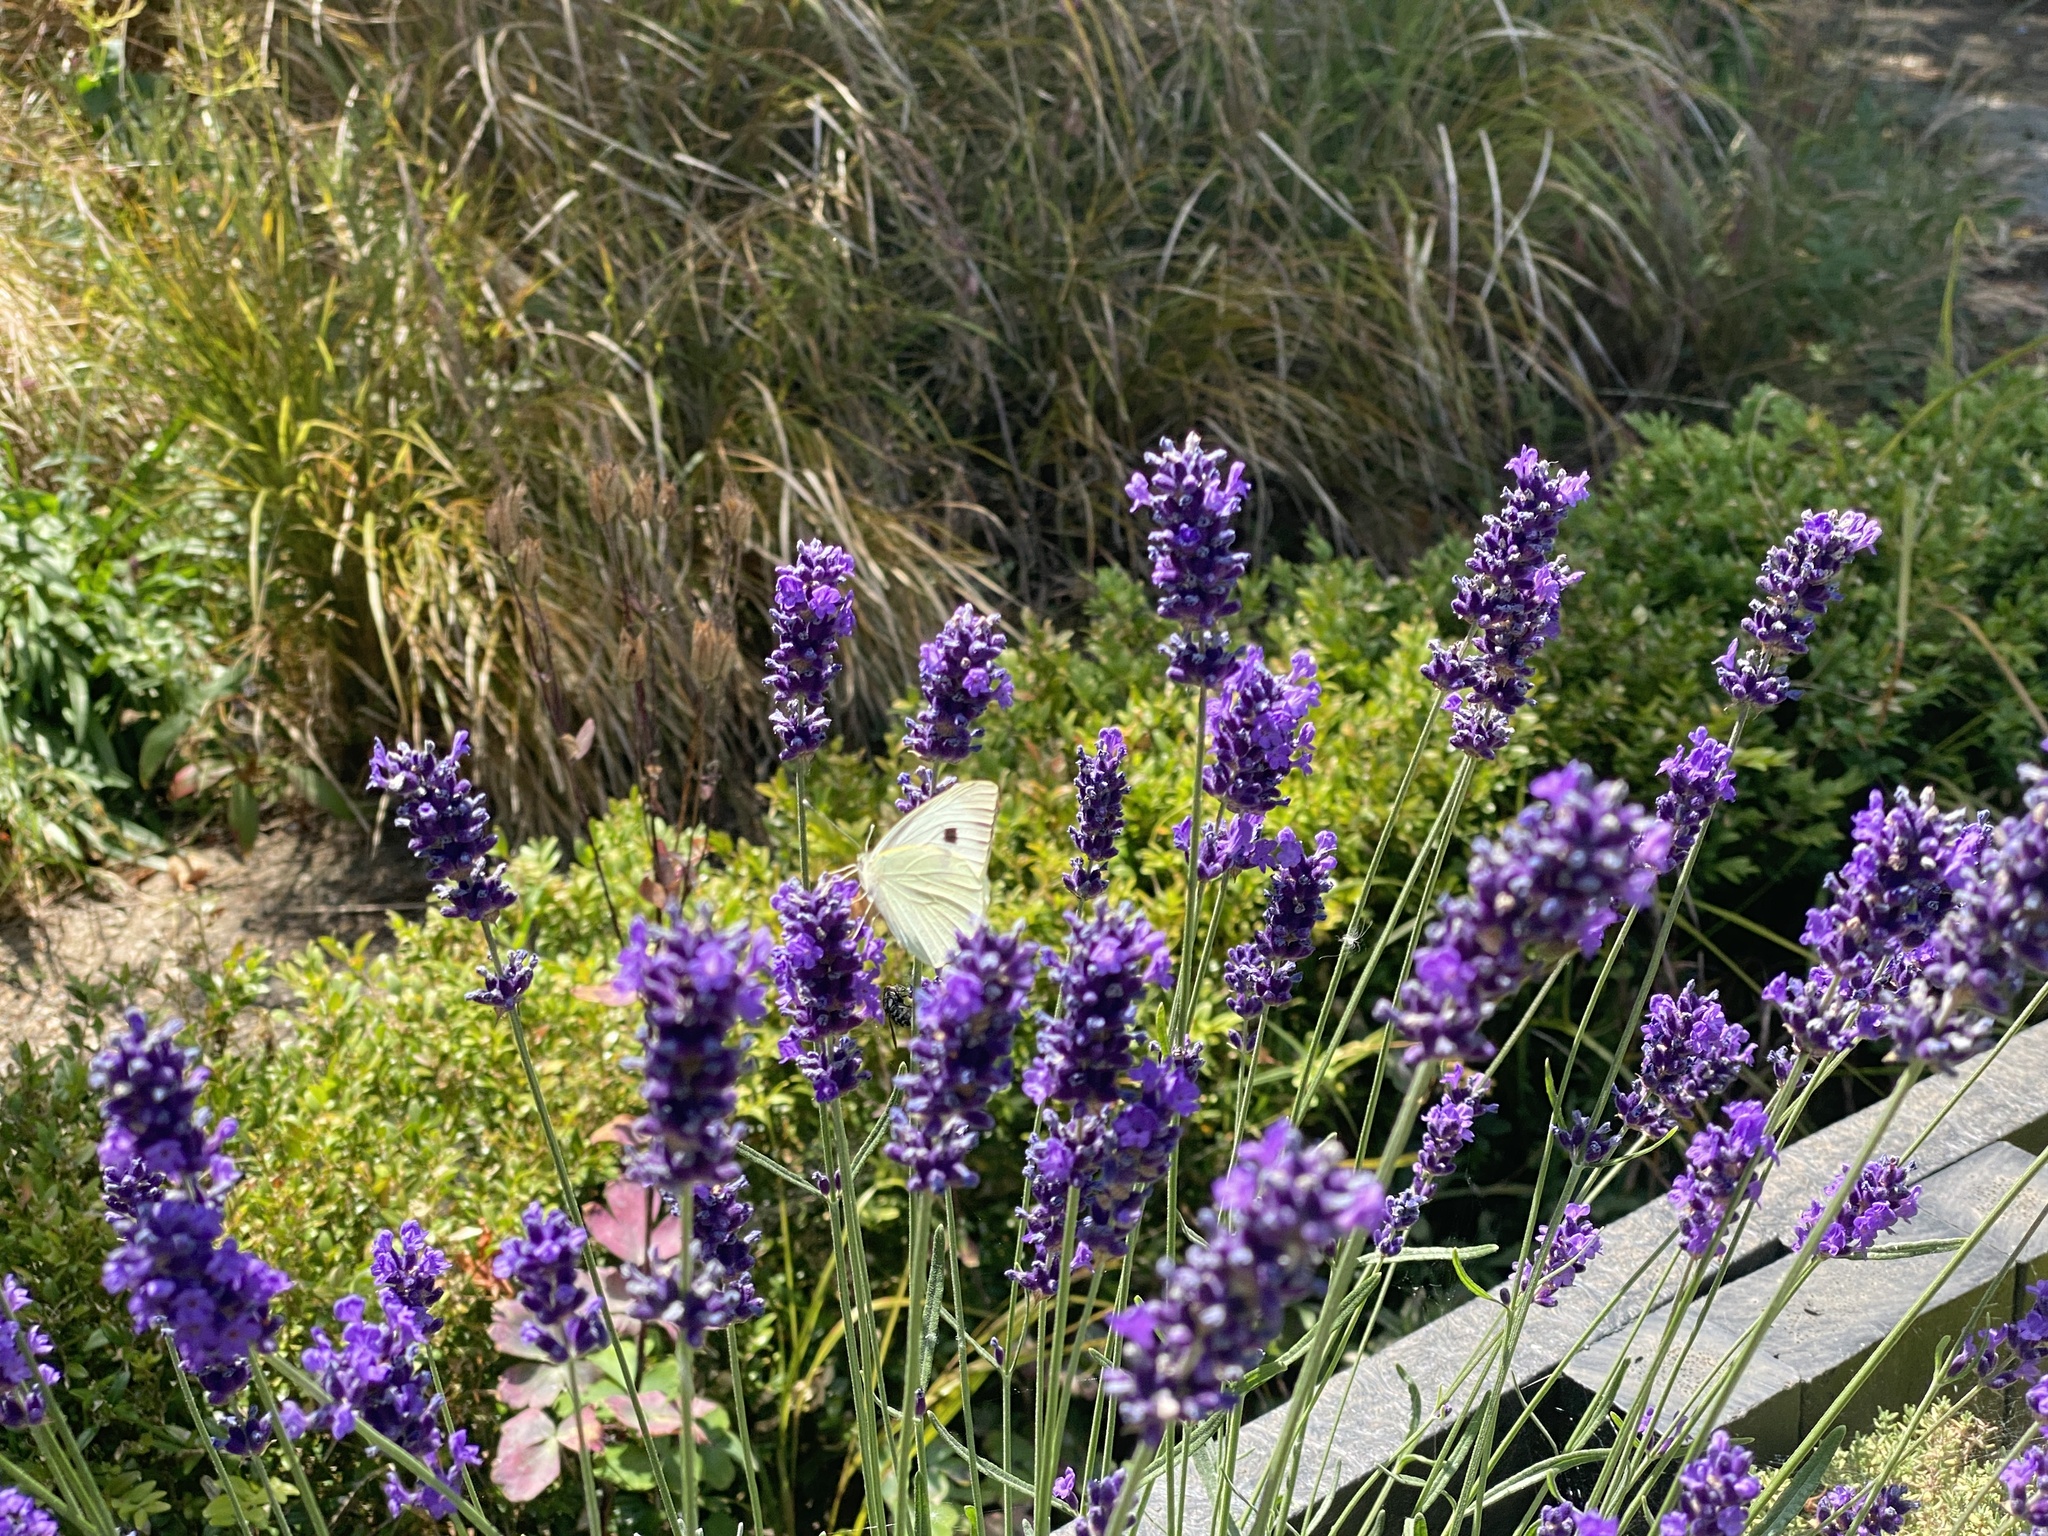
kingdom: Animalia
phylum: Arthropoda
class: Insecta
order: Lepidoptera
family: Pieridae
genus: Pieris
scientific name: Pieris brassicae
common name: Large white
